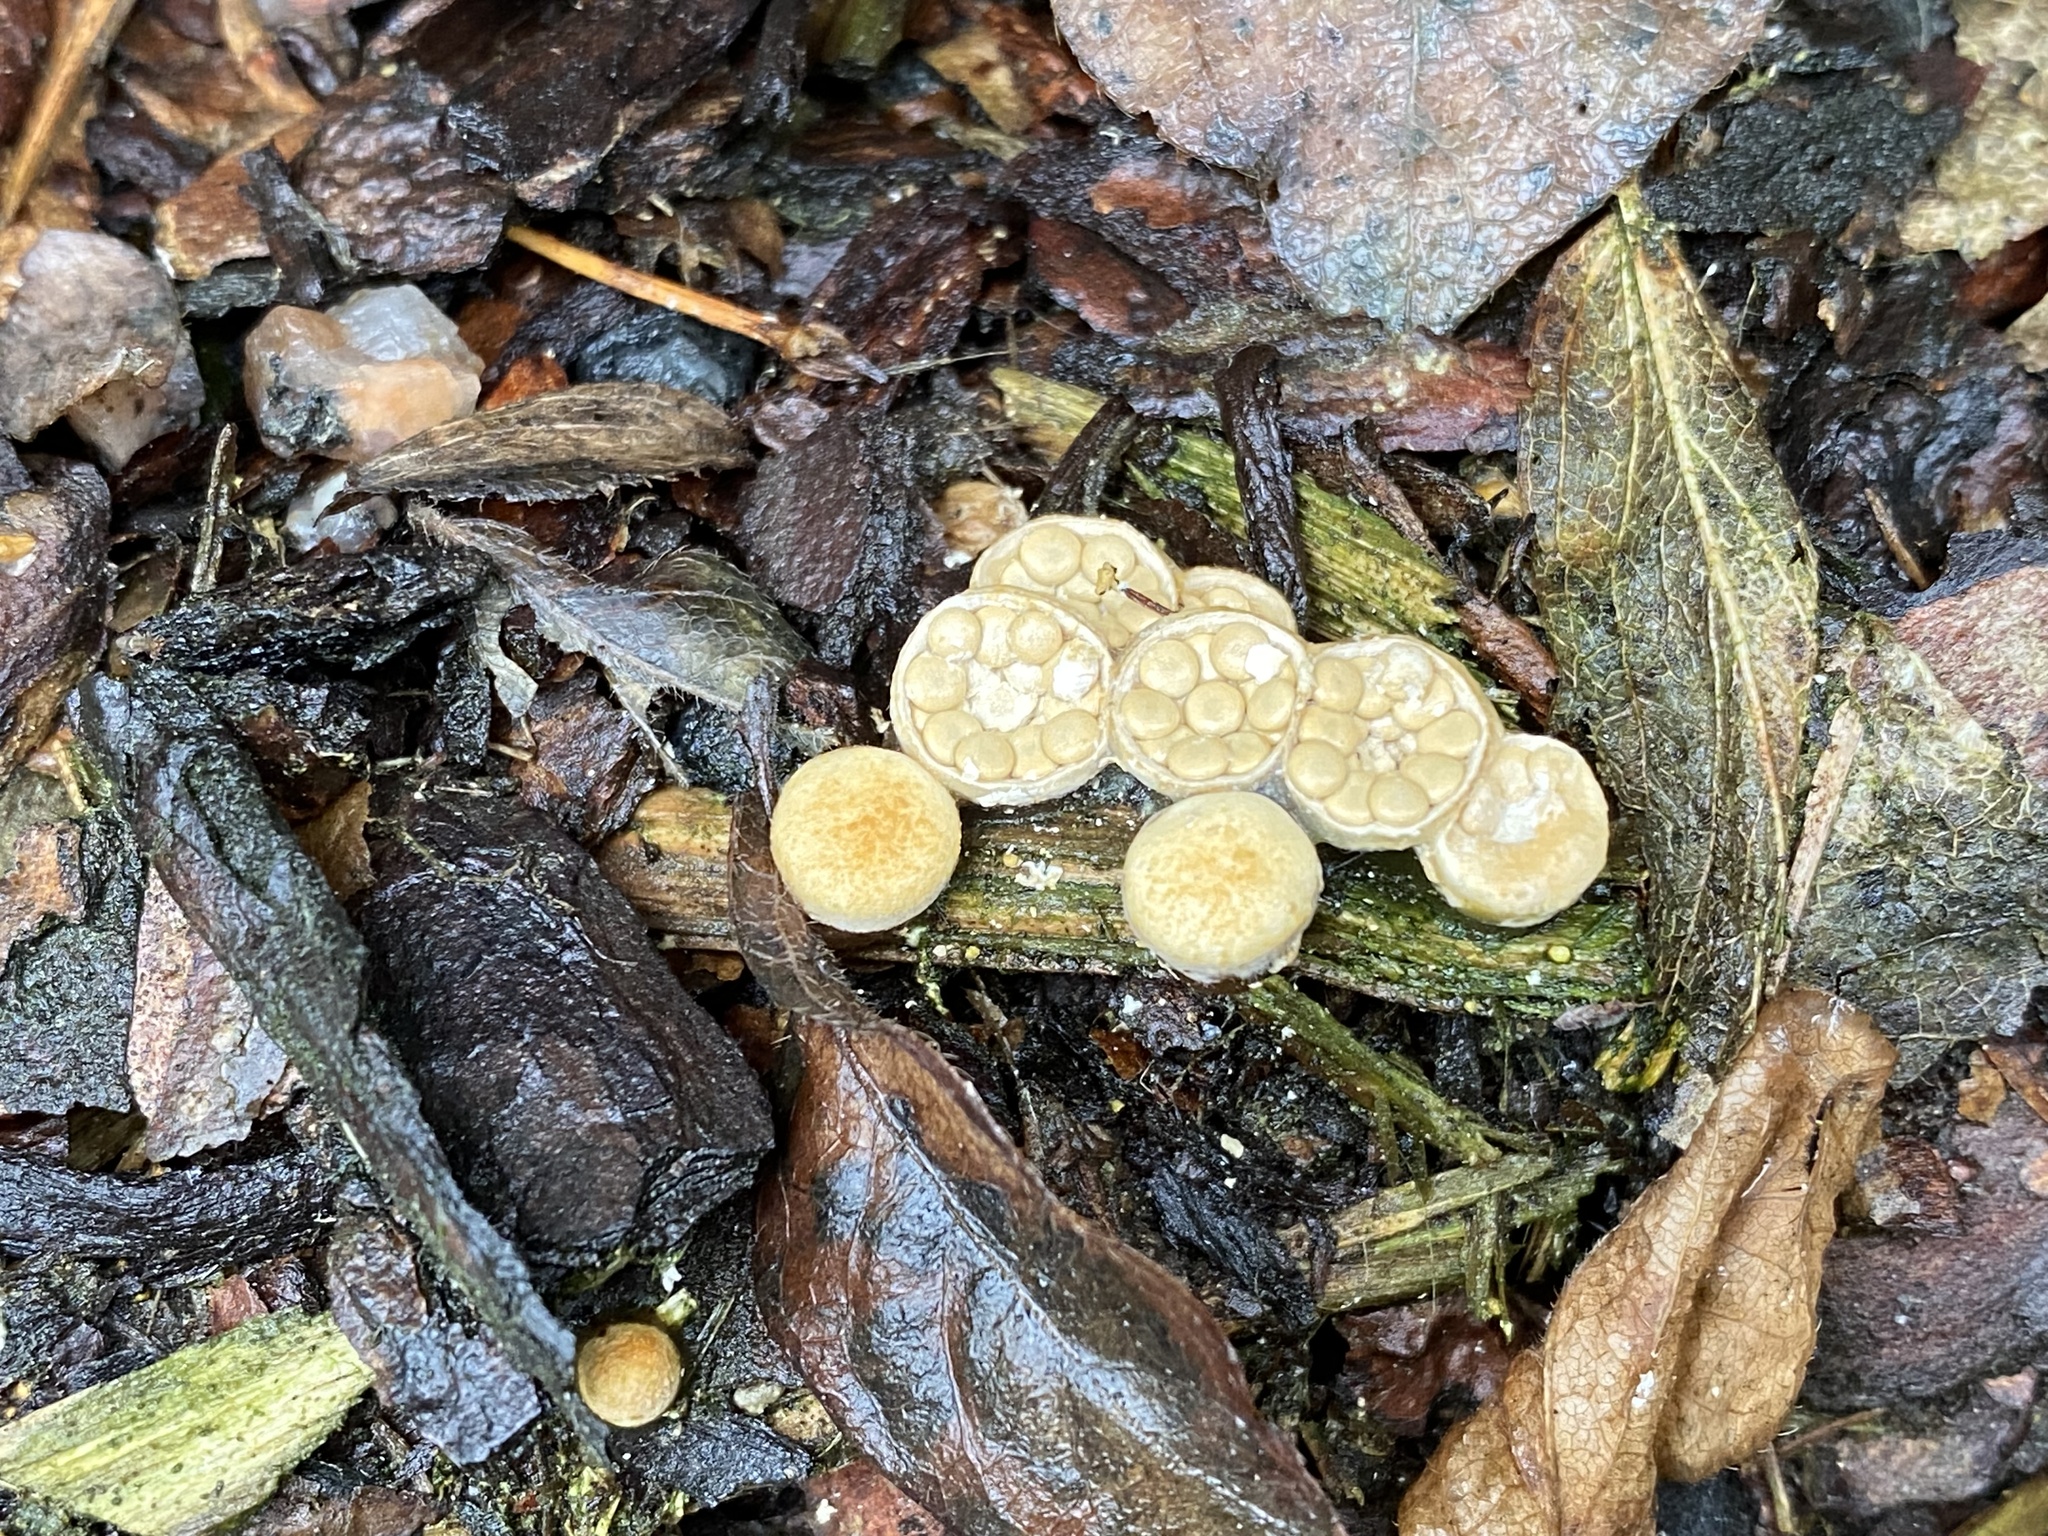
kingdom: Fungi
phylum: Basidiomycota
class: Agaricomycetes
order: Agaricales
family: Nidulariaceae
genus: Crucibulum
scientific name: Crucibulum laeve
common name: Common bird's nest
